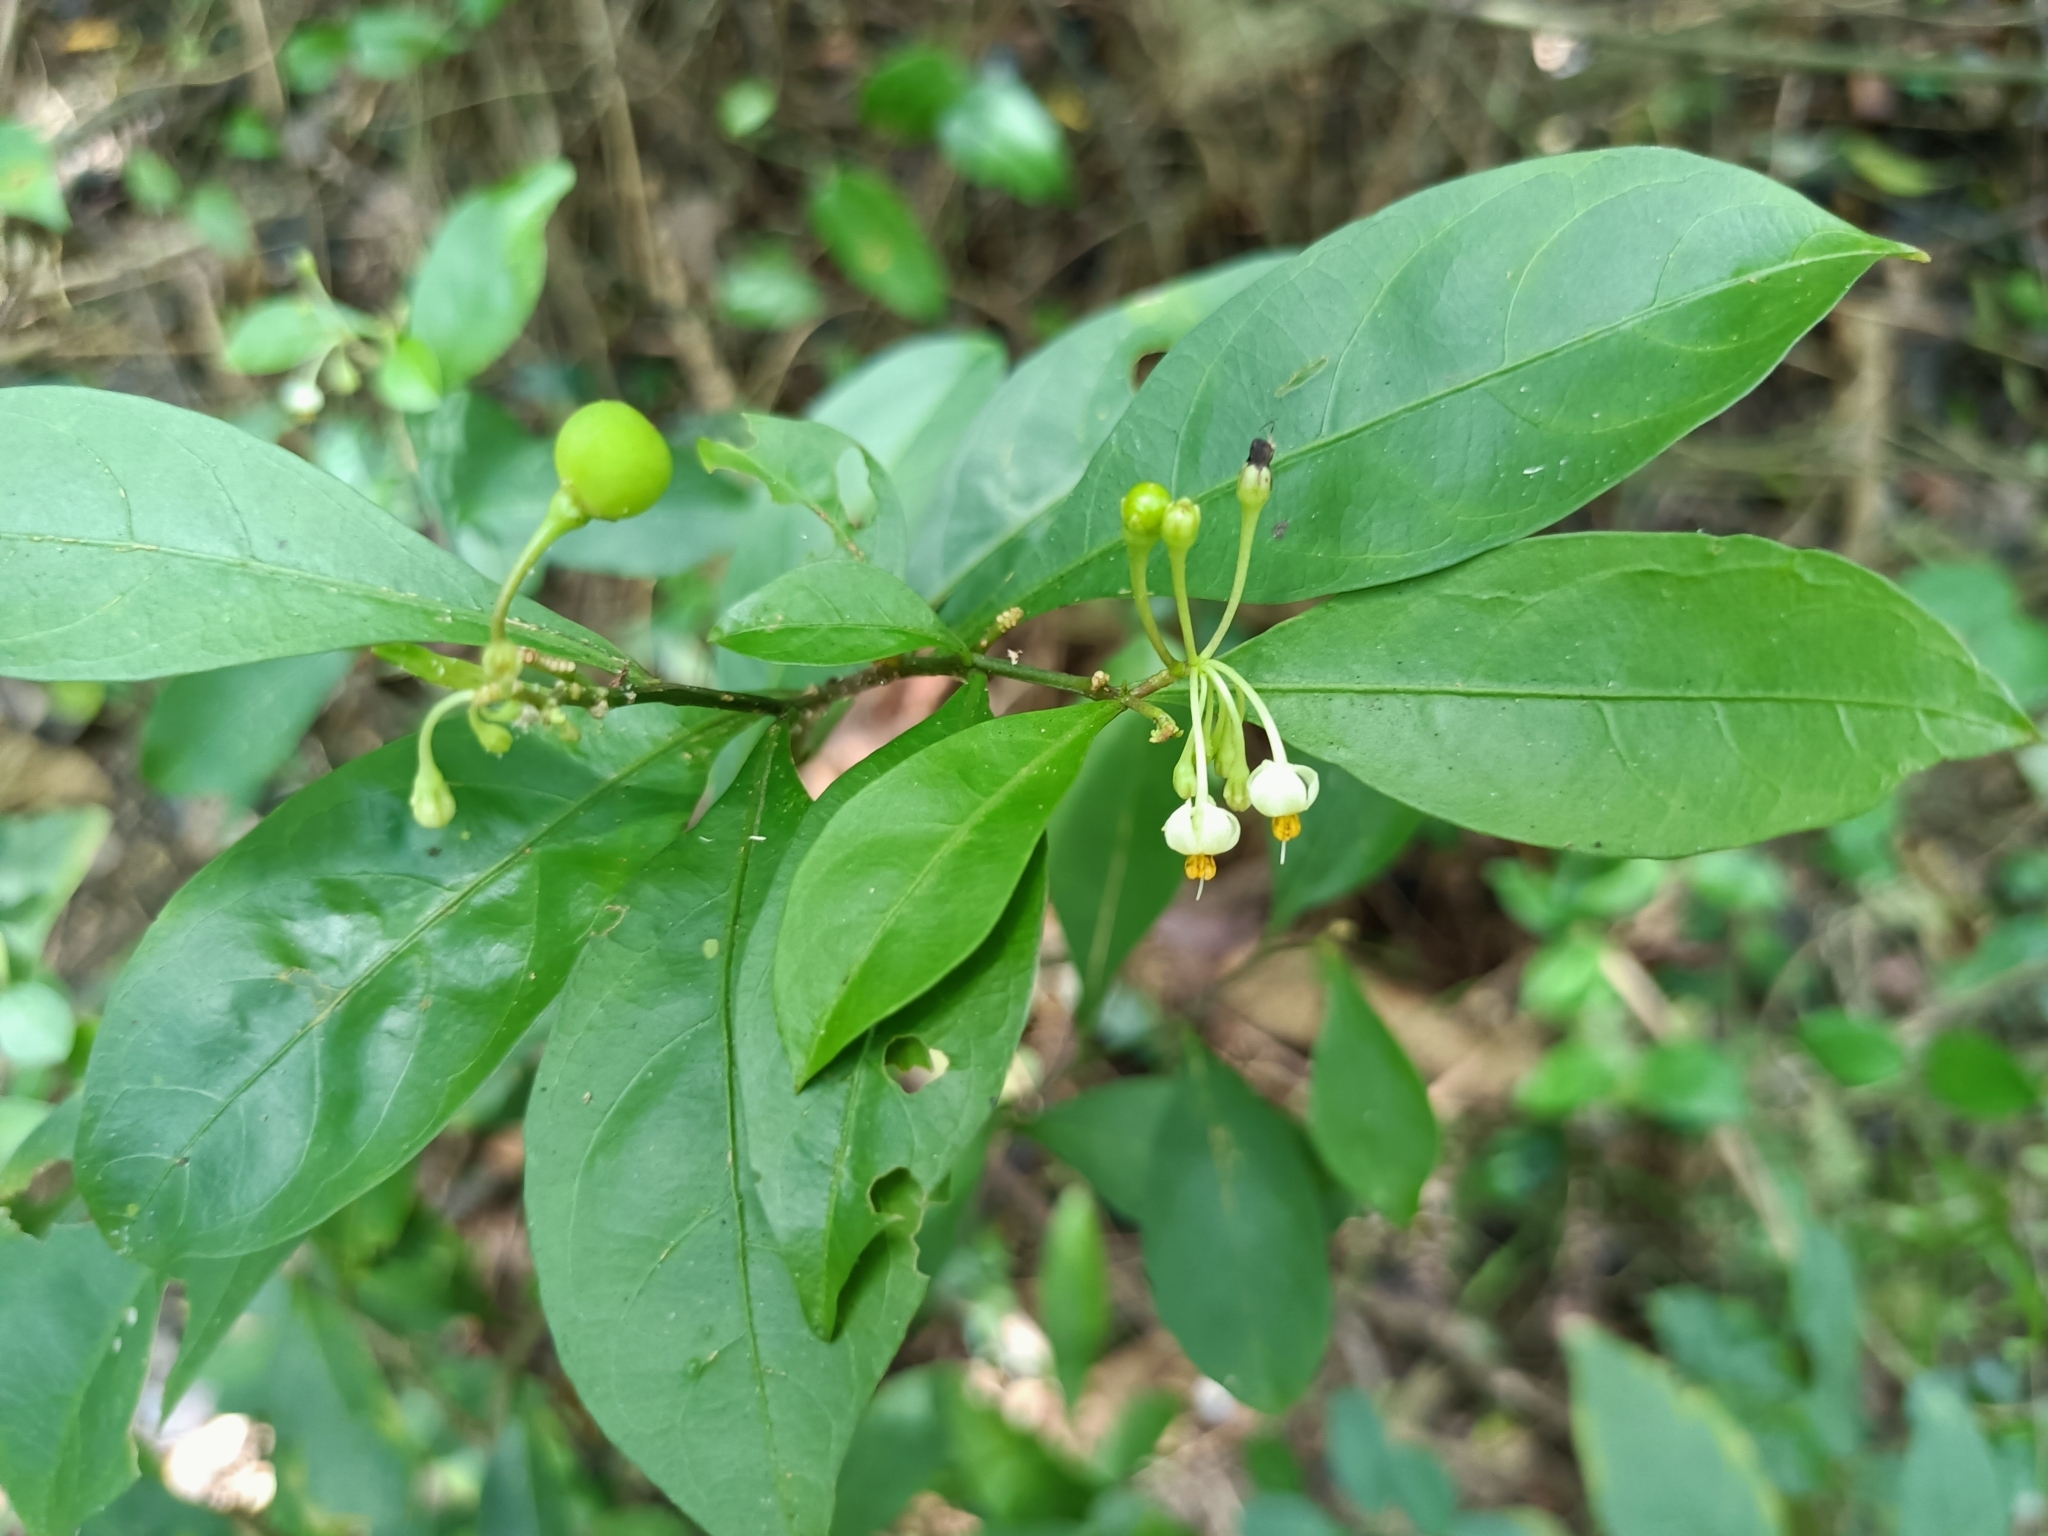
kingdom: Plantae
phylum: Tracheophyta
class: Magnoliopsida
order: Solanales
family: Solanaceae
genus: Solanum
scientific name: Solanum diphyllum
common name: Twoleaf nightshade
